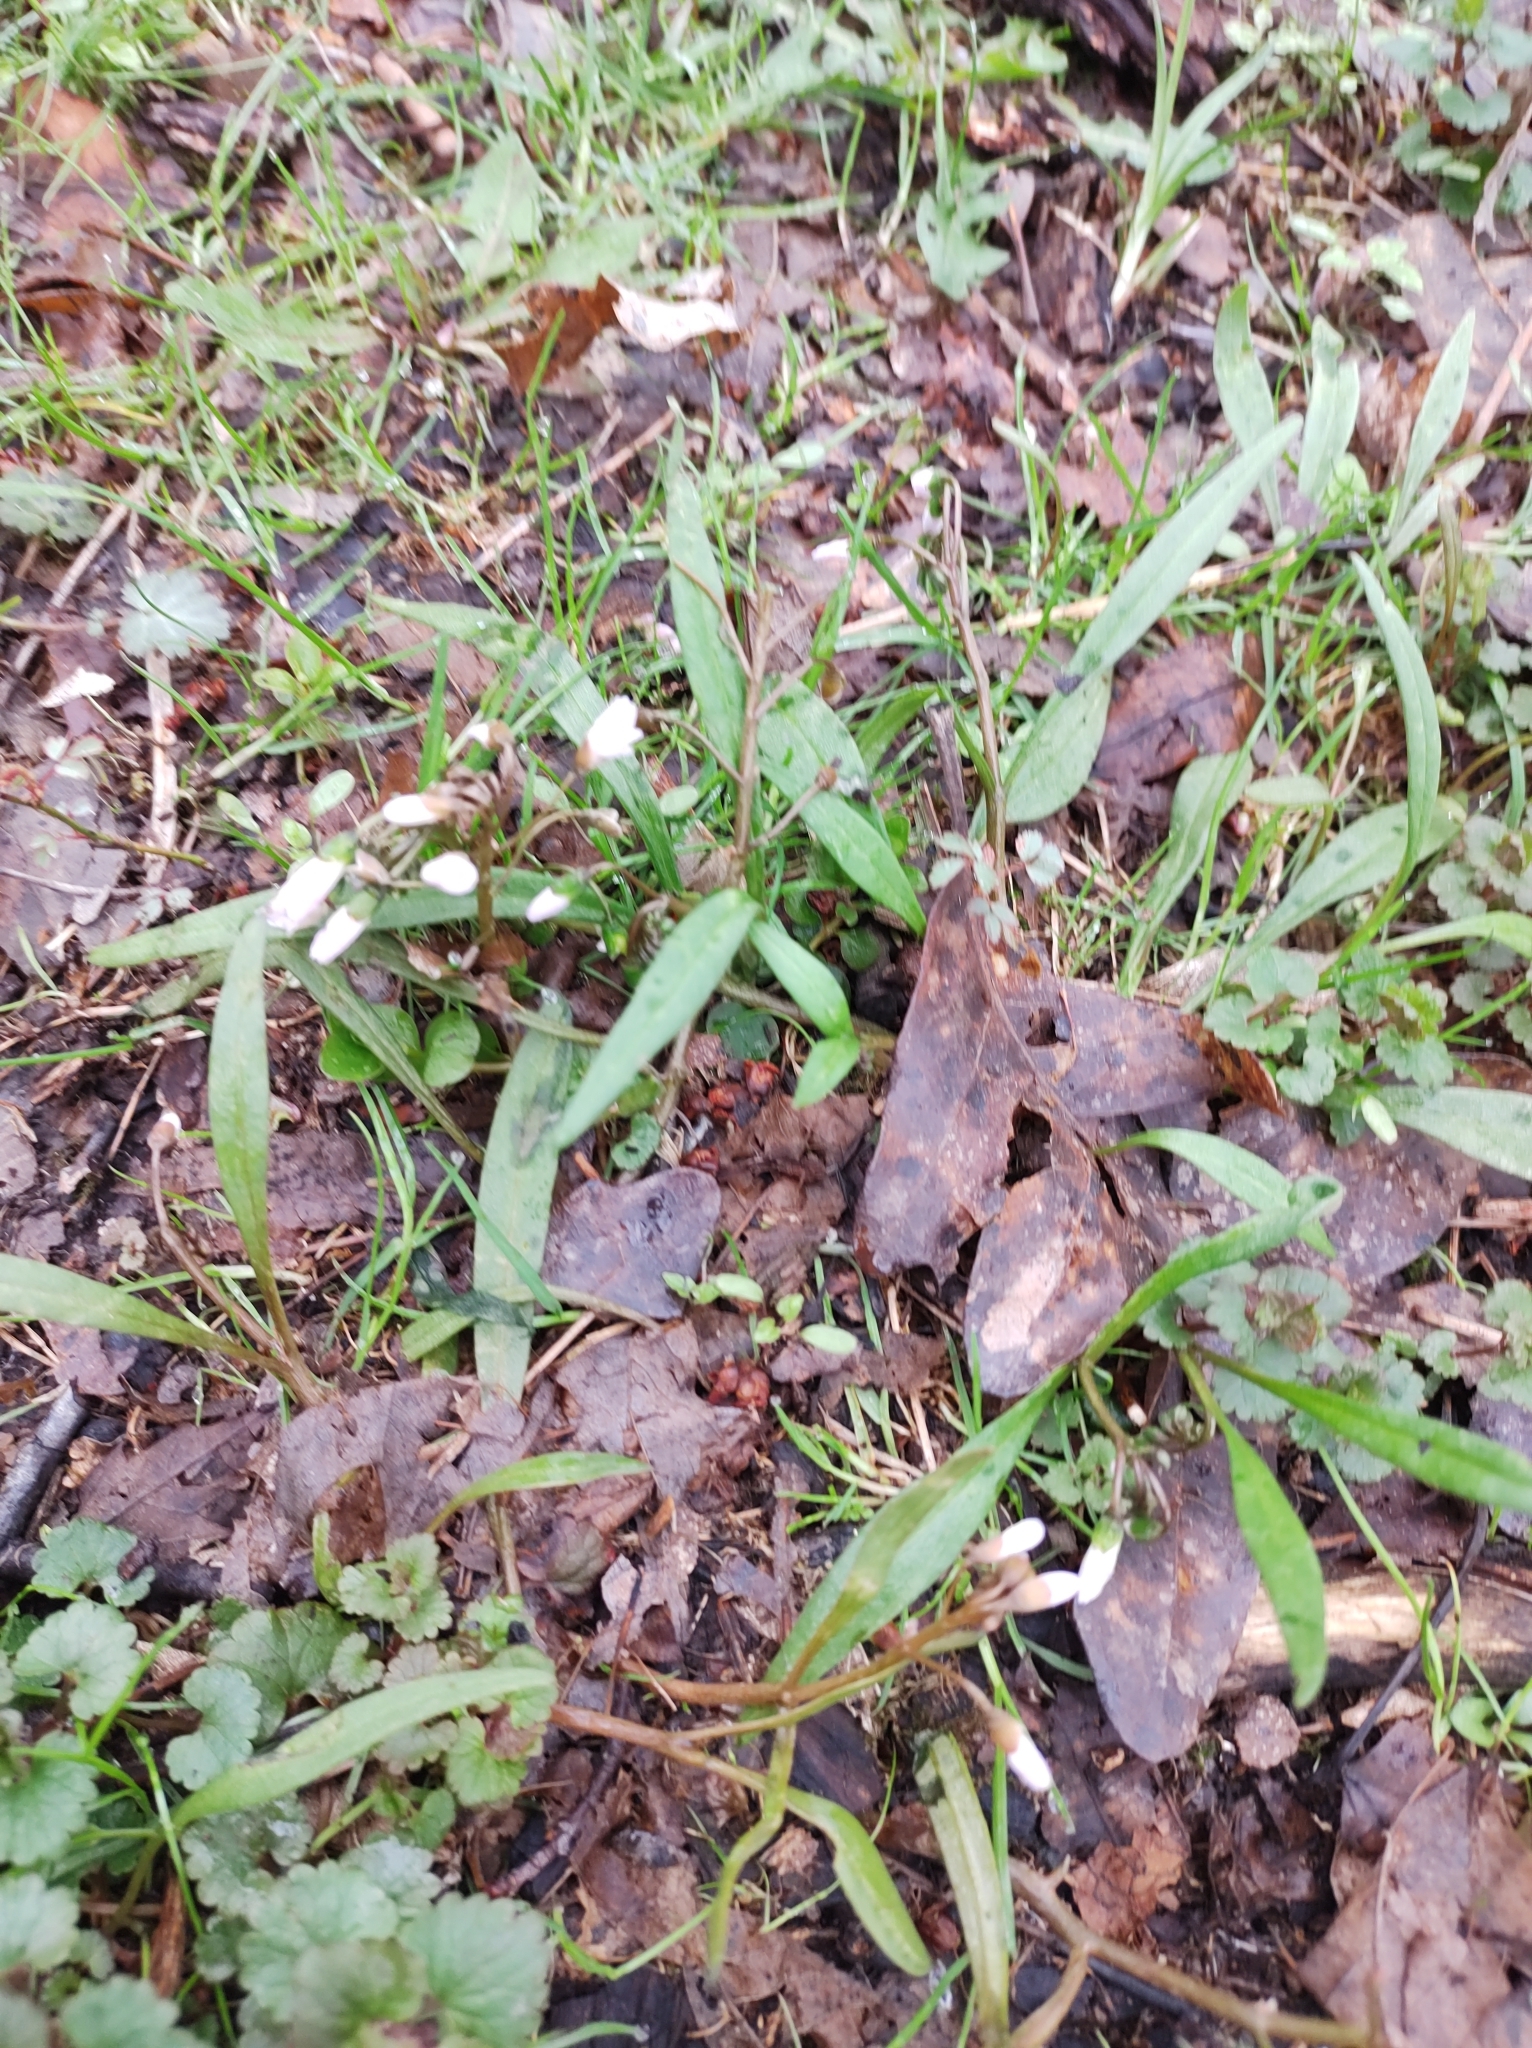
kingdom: Plantae
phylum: Tracheophyta
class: Magnoliopsida
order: Caryophyllales
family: Montiaceae
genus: Claytonia
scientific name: Claytonia virginica
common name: Virginia springbeauty
